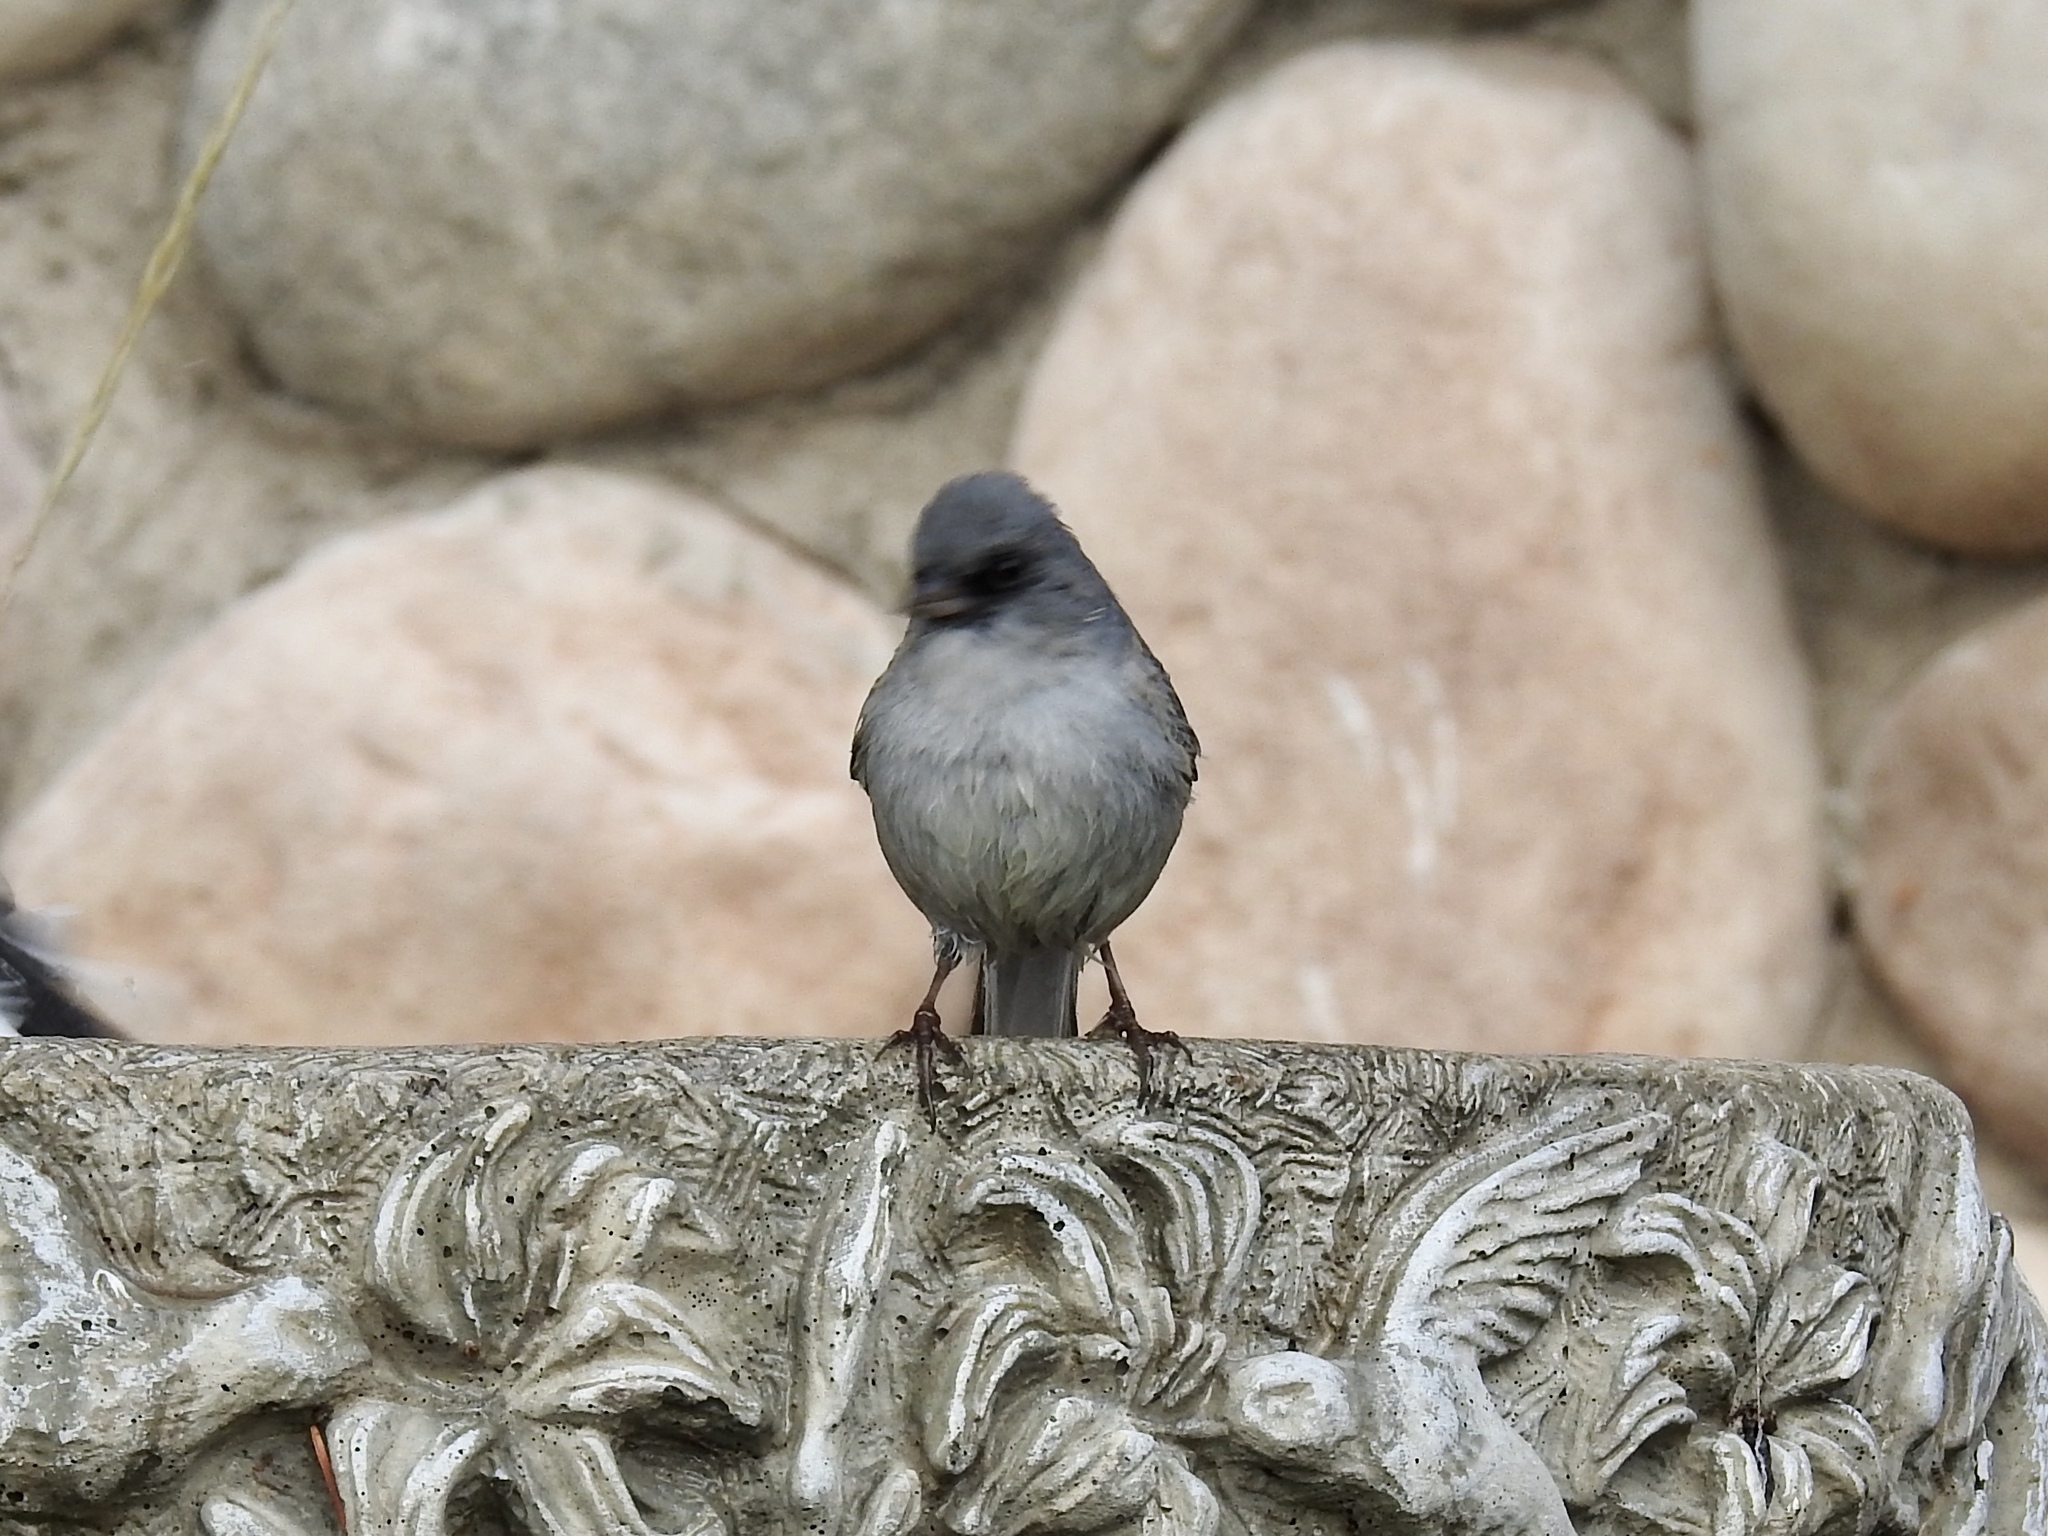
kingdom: Animalia
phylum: Chordata
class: Aves
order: Passeriformes
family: Passerellidae
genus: Junco
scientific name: Junco hyemalis
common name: Dark-eyed junco
